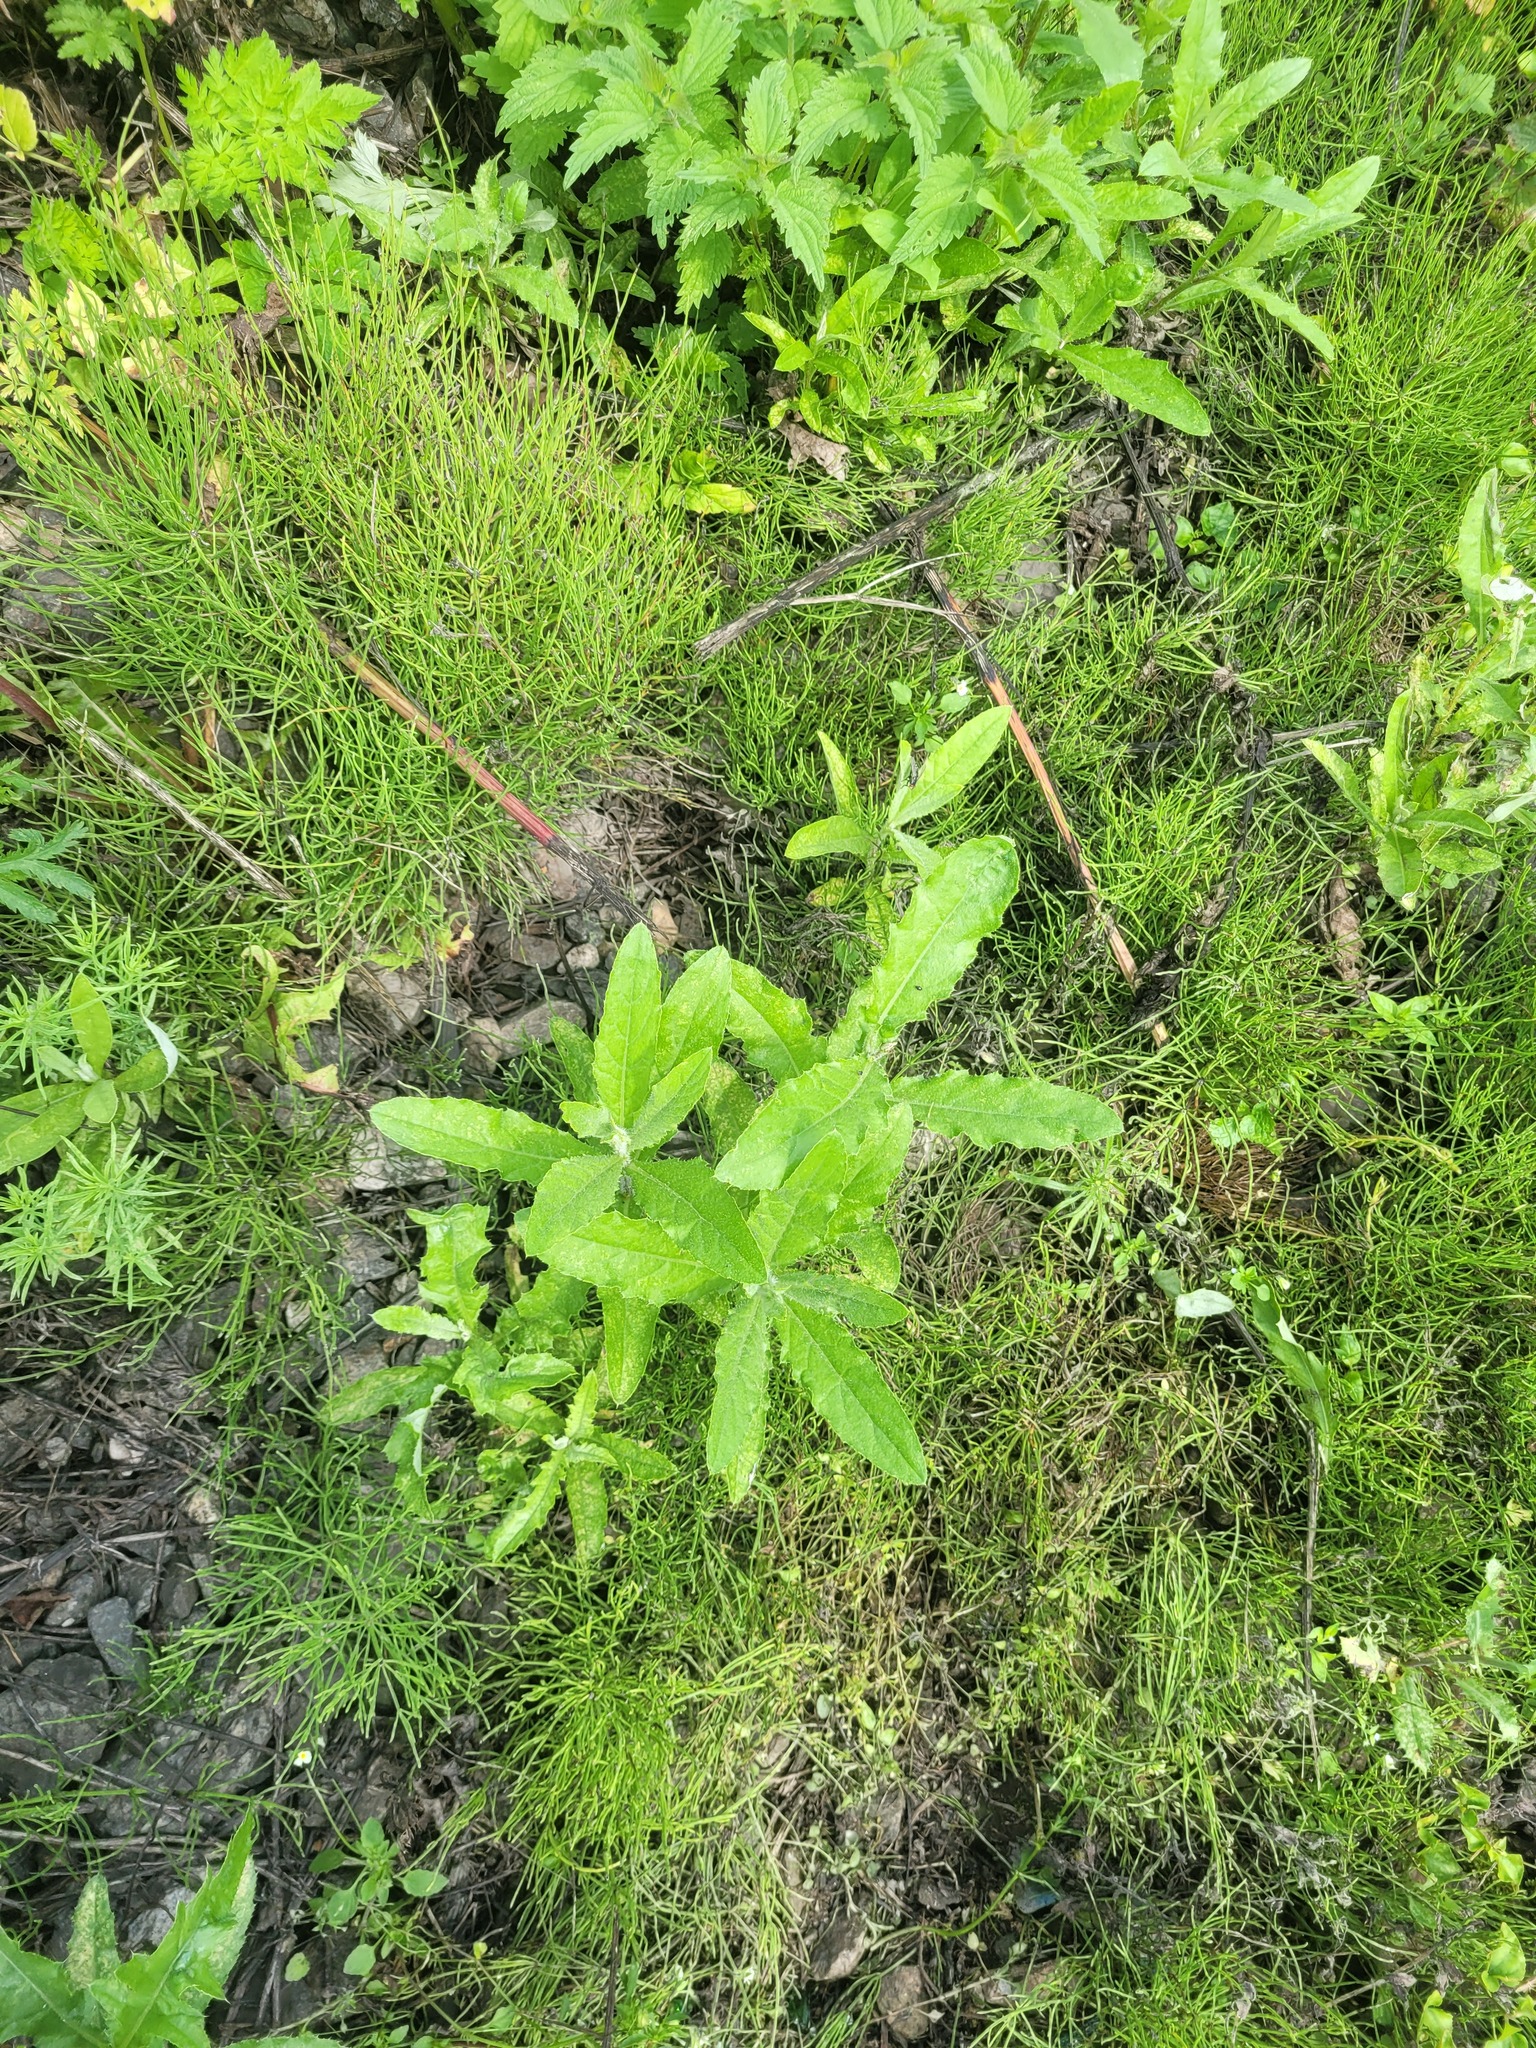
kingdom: Plantae
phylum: Tracheophyta
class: Magnoliopsida
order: Asterales
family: Asteraceae
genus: Cirsium
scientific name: Cirsium arvense
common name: Creeping thistle
